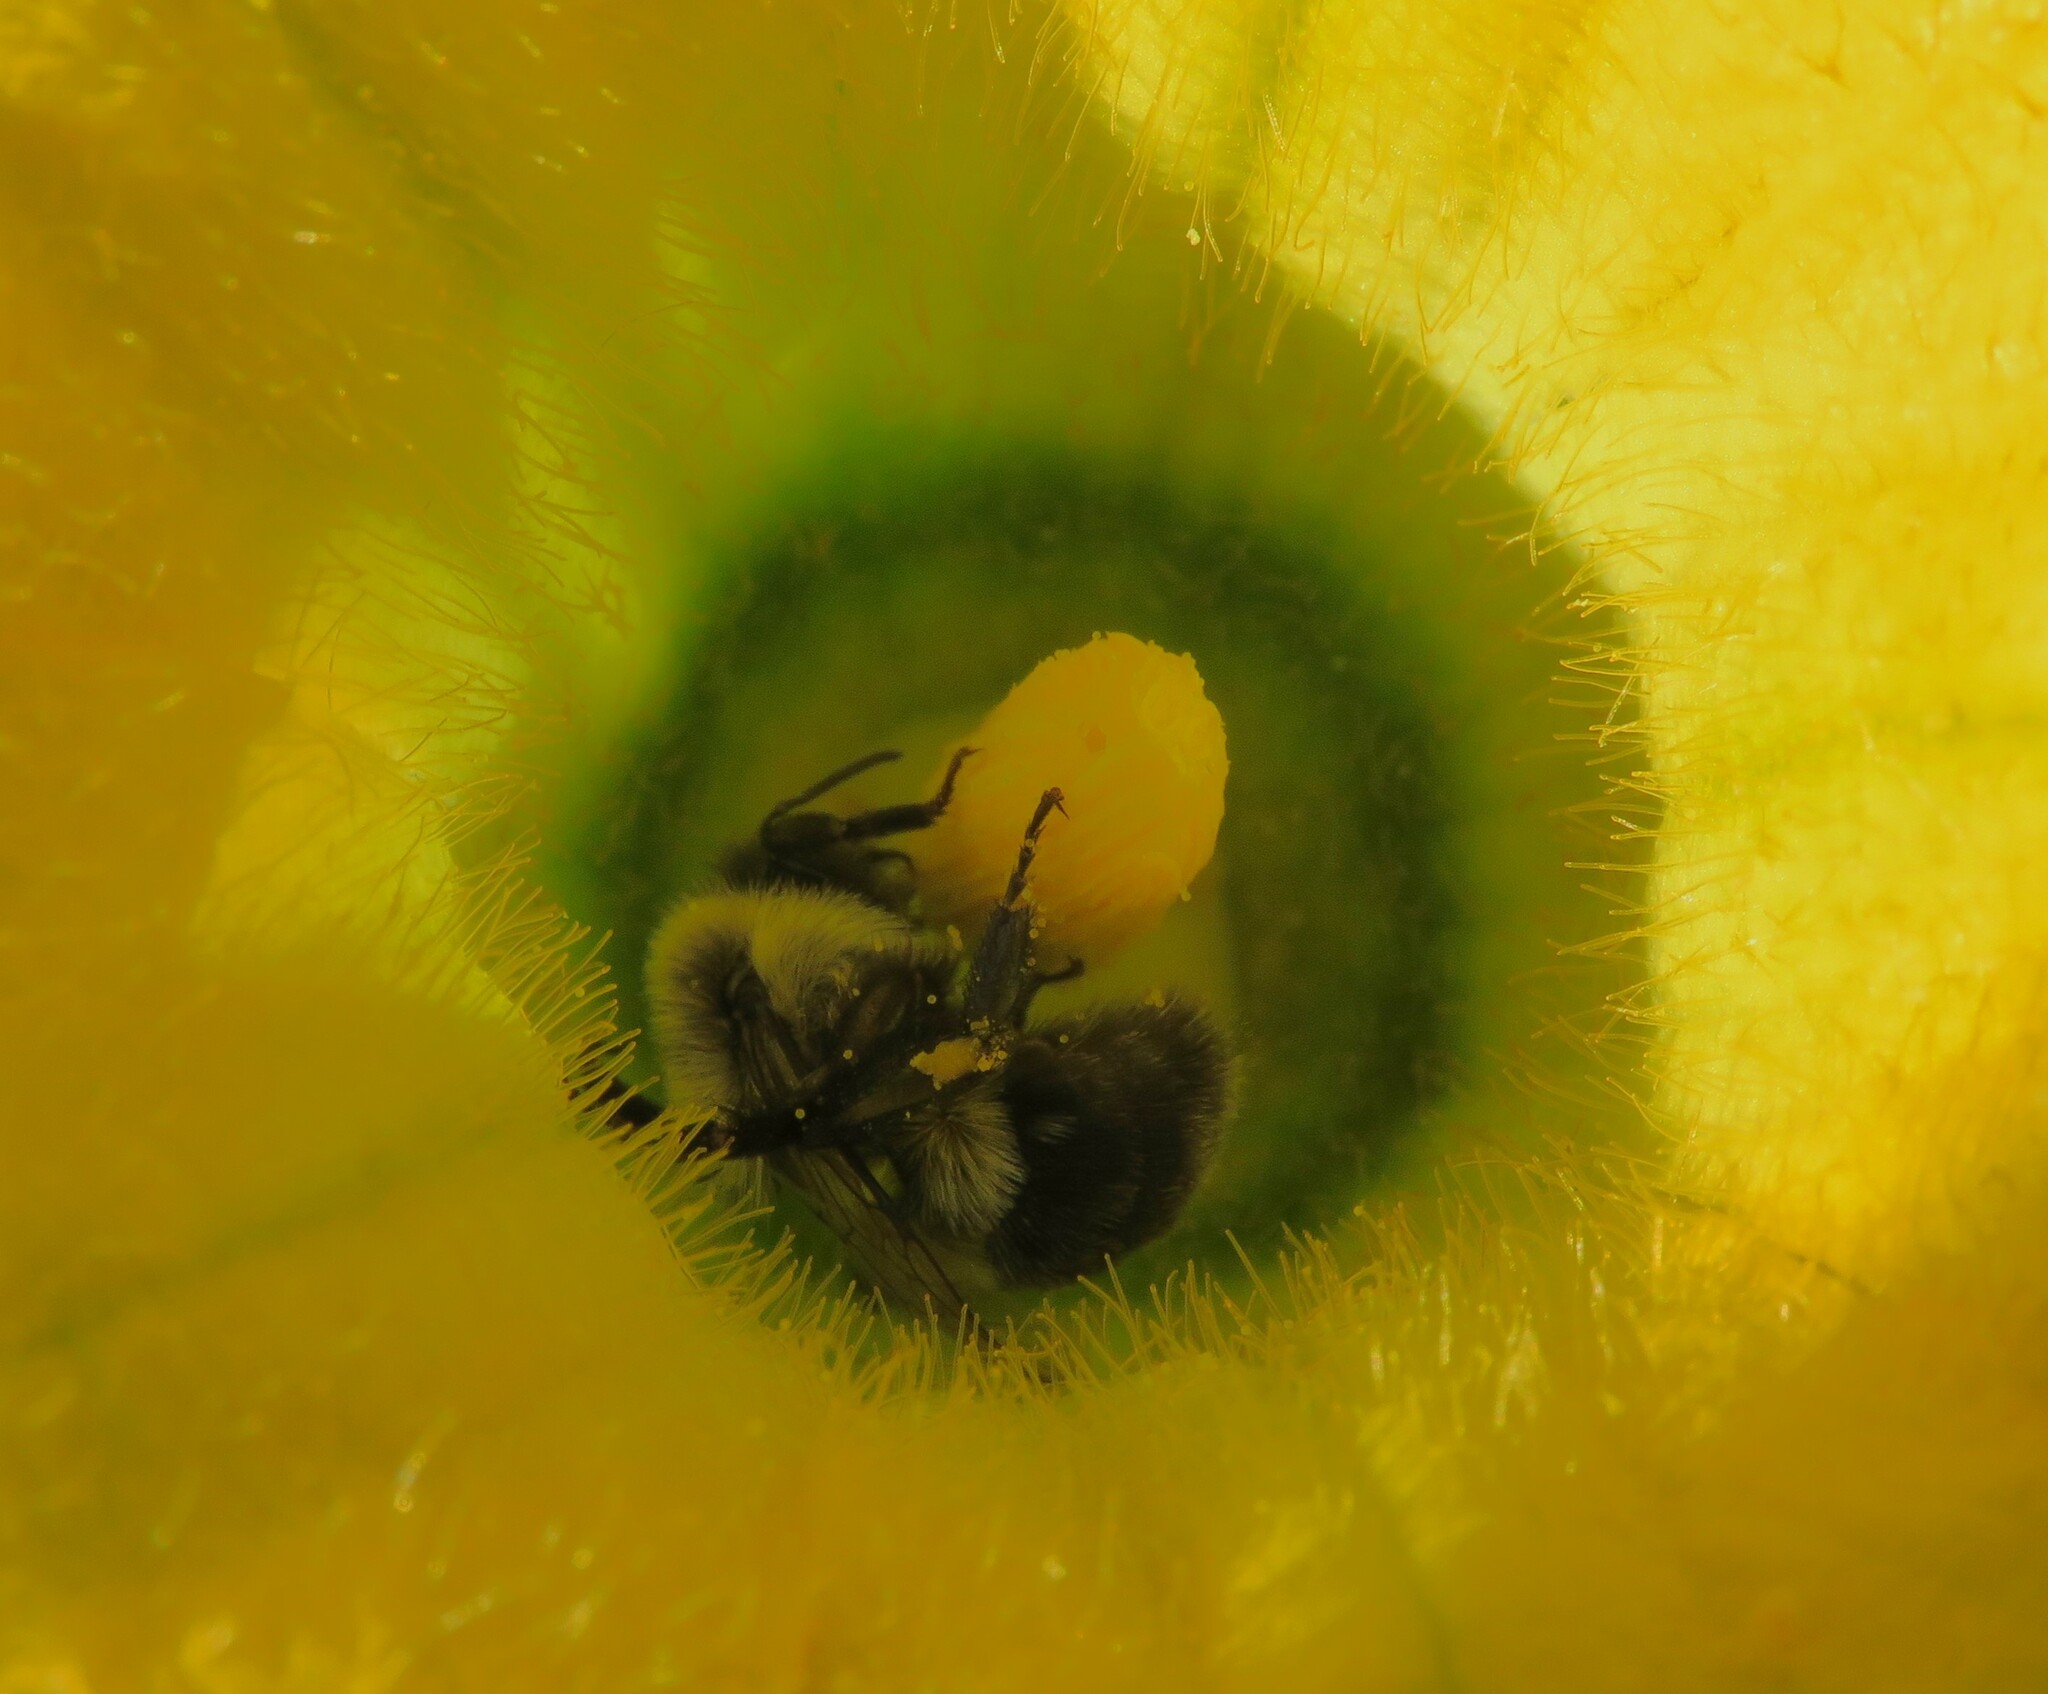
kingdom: Animalia
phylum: Arthropoda
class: Insecta
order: Hymenoptera
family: Apidae
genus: Bombus
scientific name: Bombus impatiens
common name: Common eastern bumble bee
